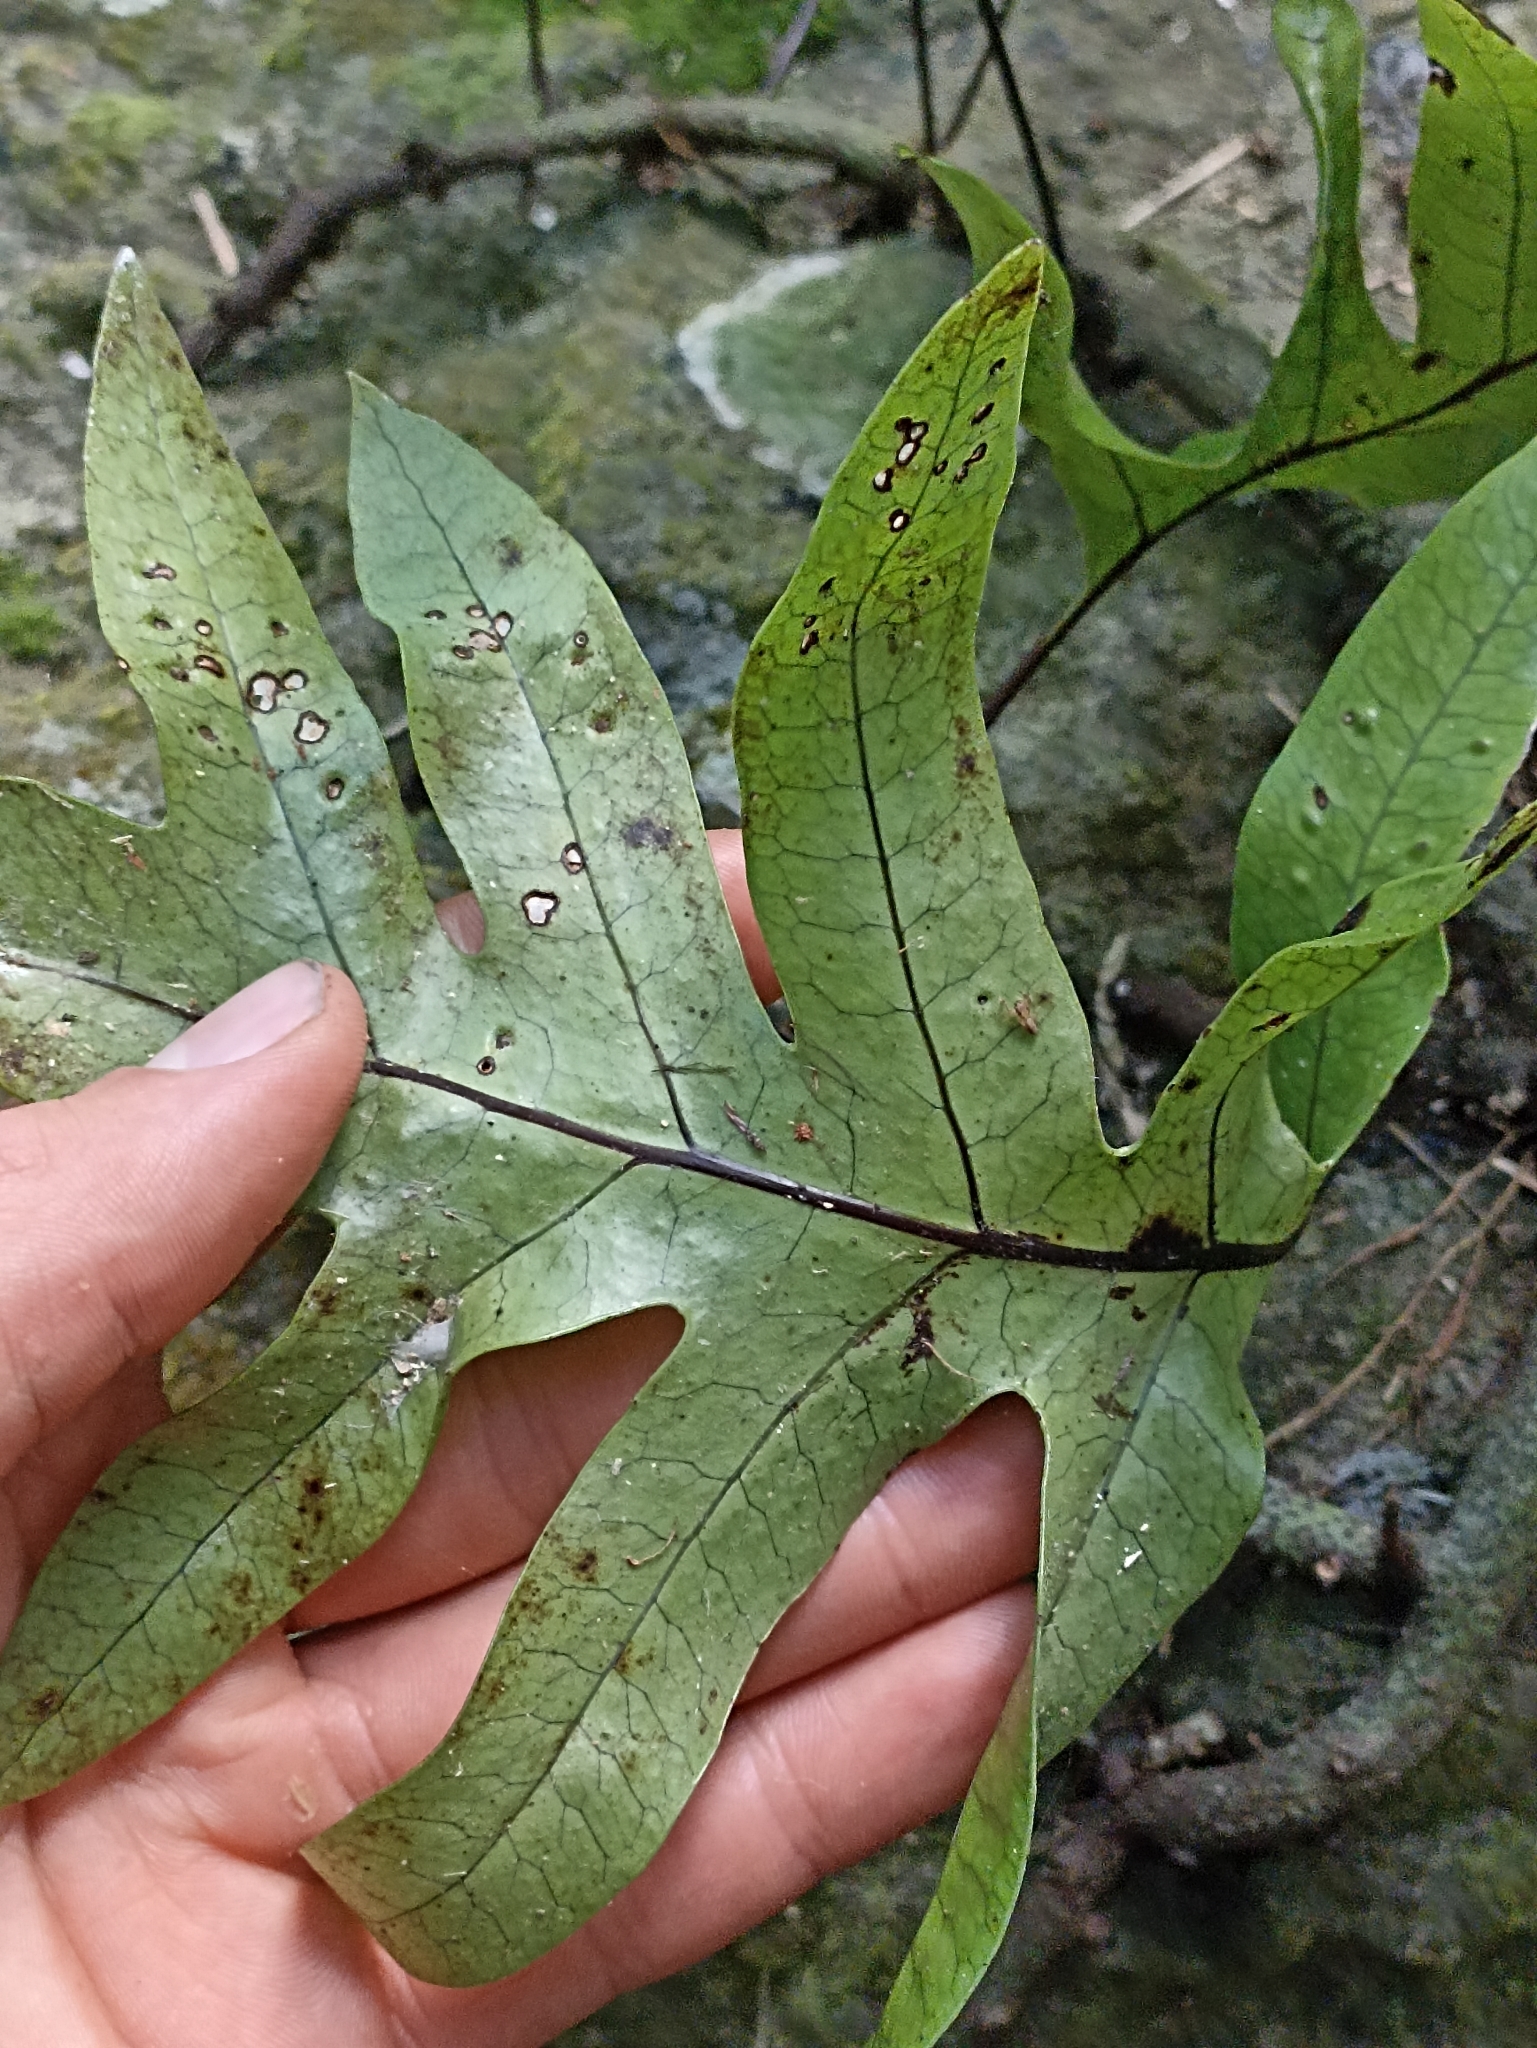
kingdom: Plantae
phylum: Tracheophyta
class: Polypodiopsida
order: Polypodiales
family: Polypodiaceae
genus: Lecanopteris
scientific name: Lecanopteris pustulata
